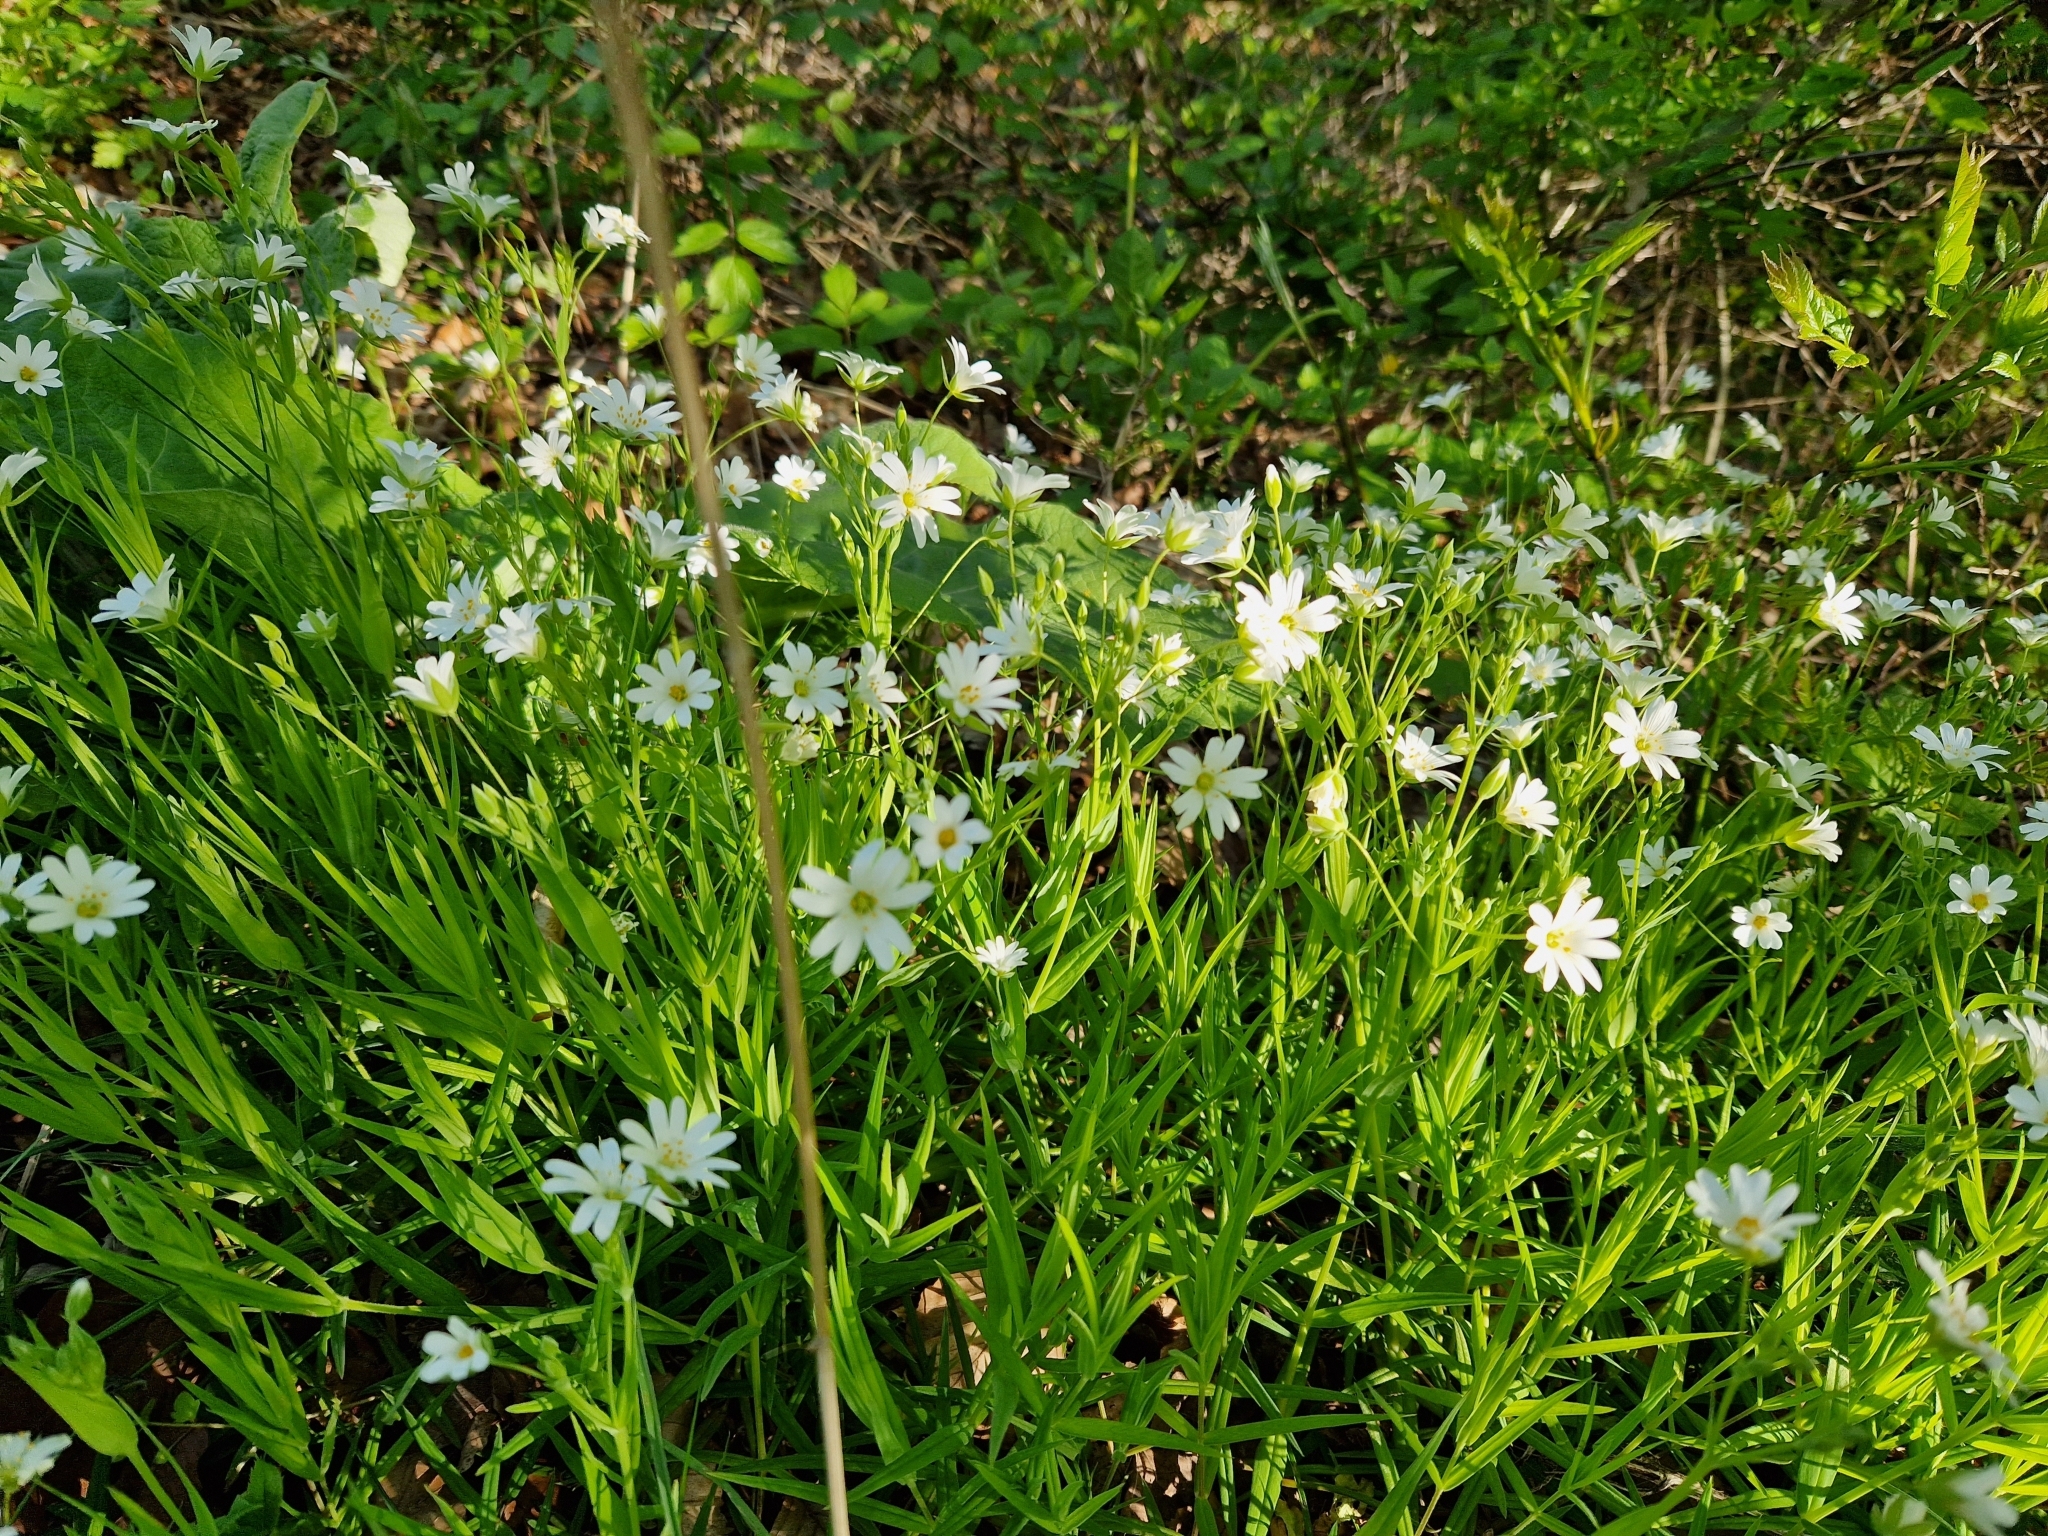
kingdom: Plantae
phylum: Tracheophyta
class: Magnoliopsida
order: Caryophyllales
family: Caryophyllaceae
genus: Rabelera
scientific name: Rabelera holostea
